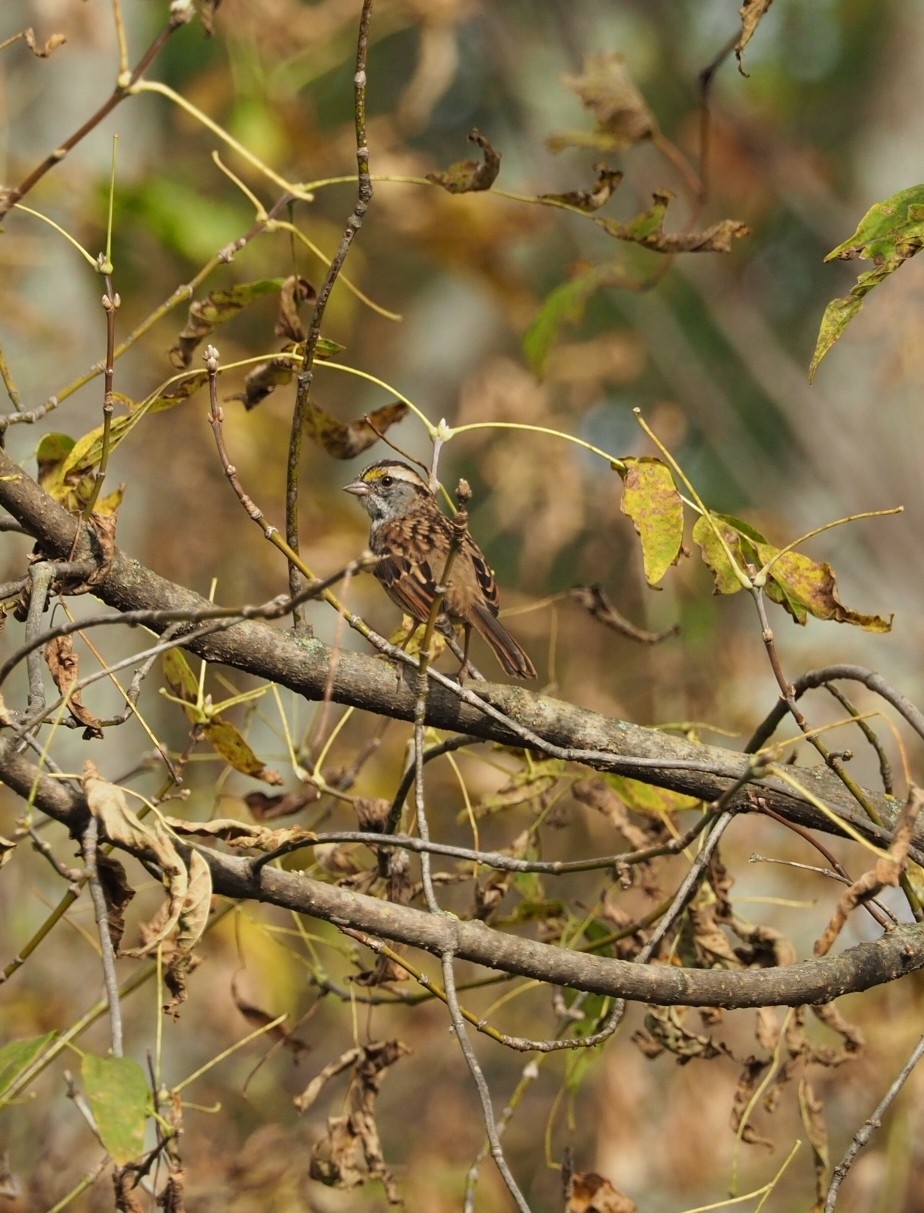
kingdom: Animalia
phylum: Chordata
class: Aves
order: Passeriformes
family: Passerellidae
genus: Zonotrichia
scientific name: Zonotrichia albicollis
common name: White-throated sparrow
